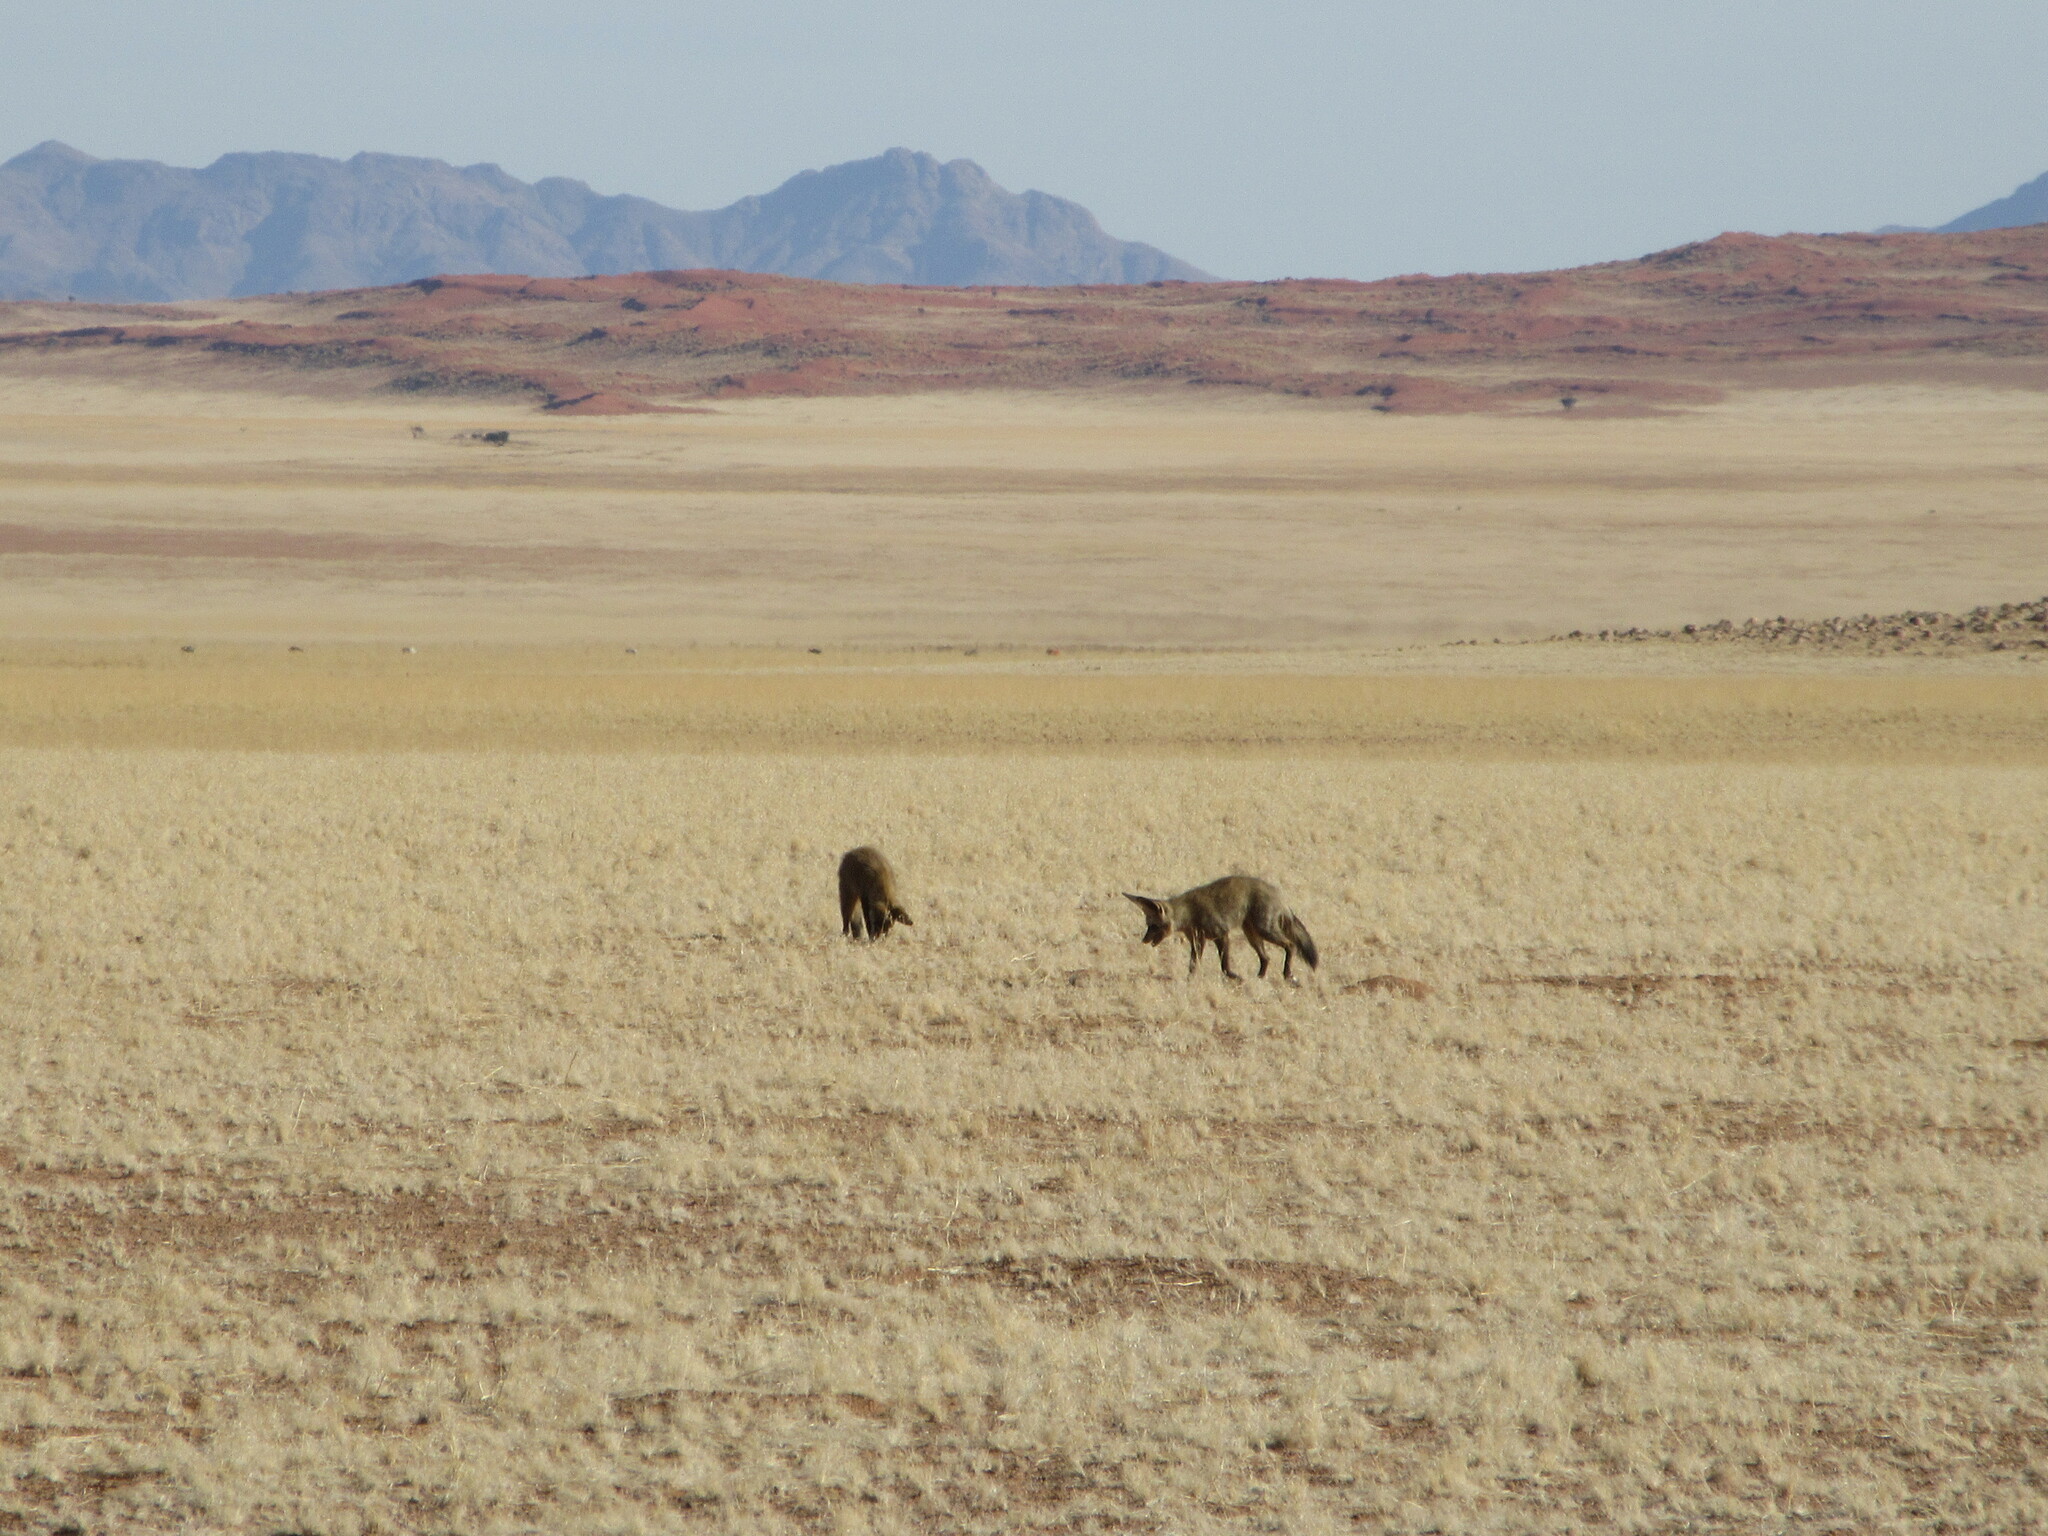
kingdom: Animalia
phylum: Chordata
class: Mammalia
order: Carnivora
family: Canidae
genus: Otocyon
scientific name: Otocyon megalotis
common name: Bat-eared fox
